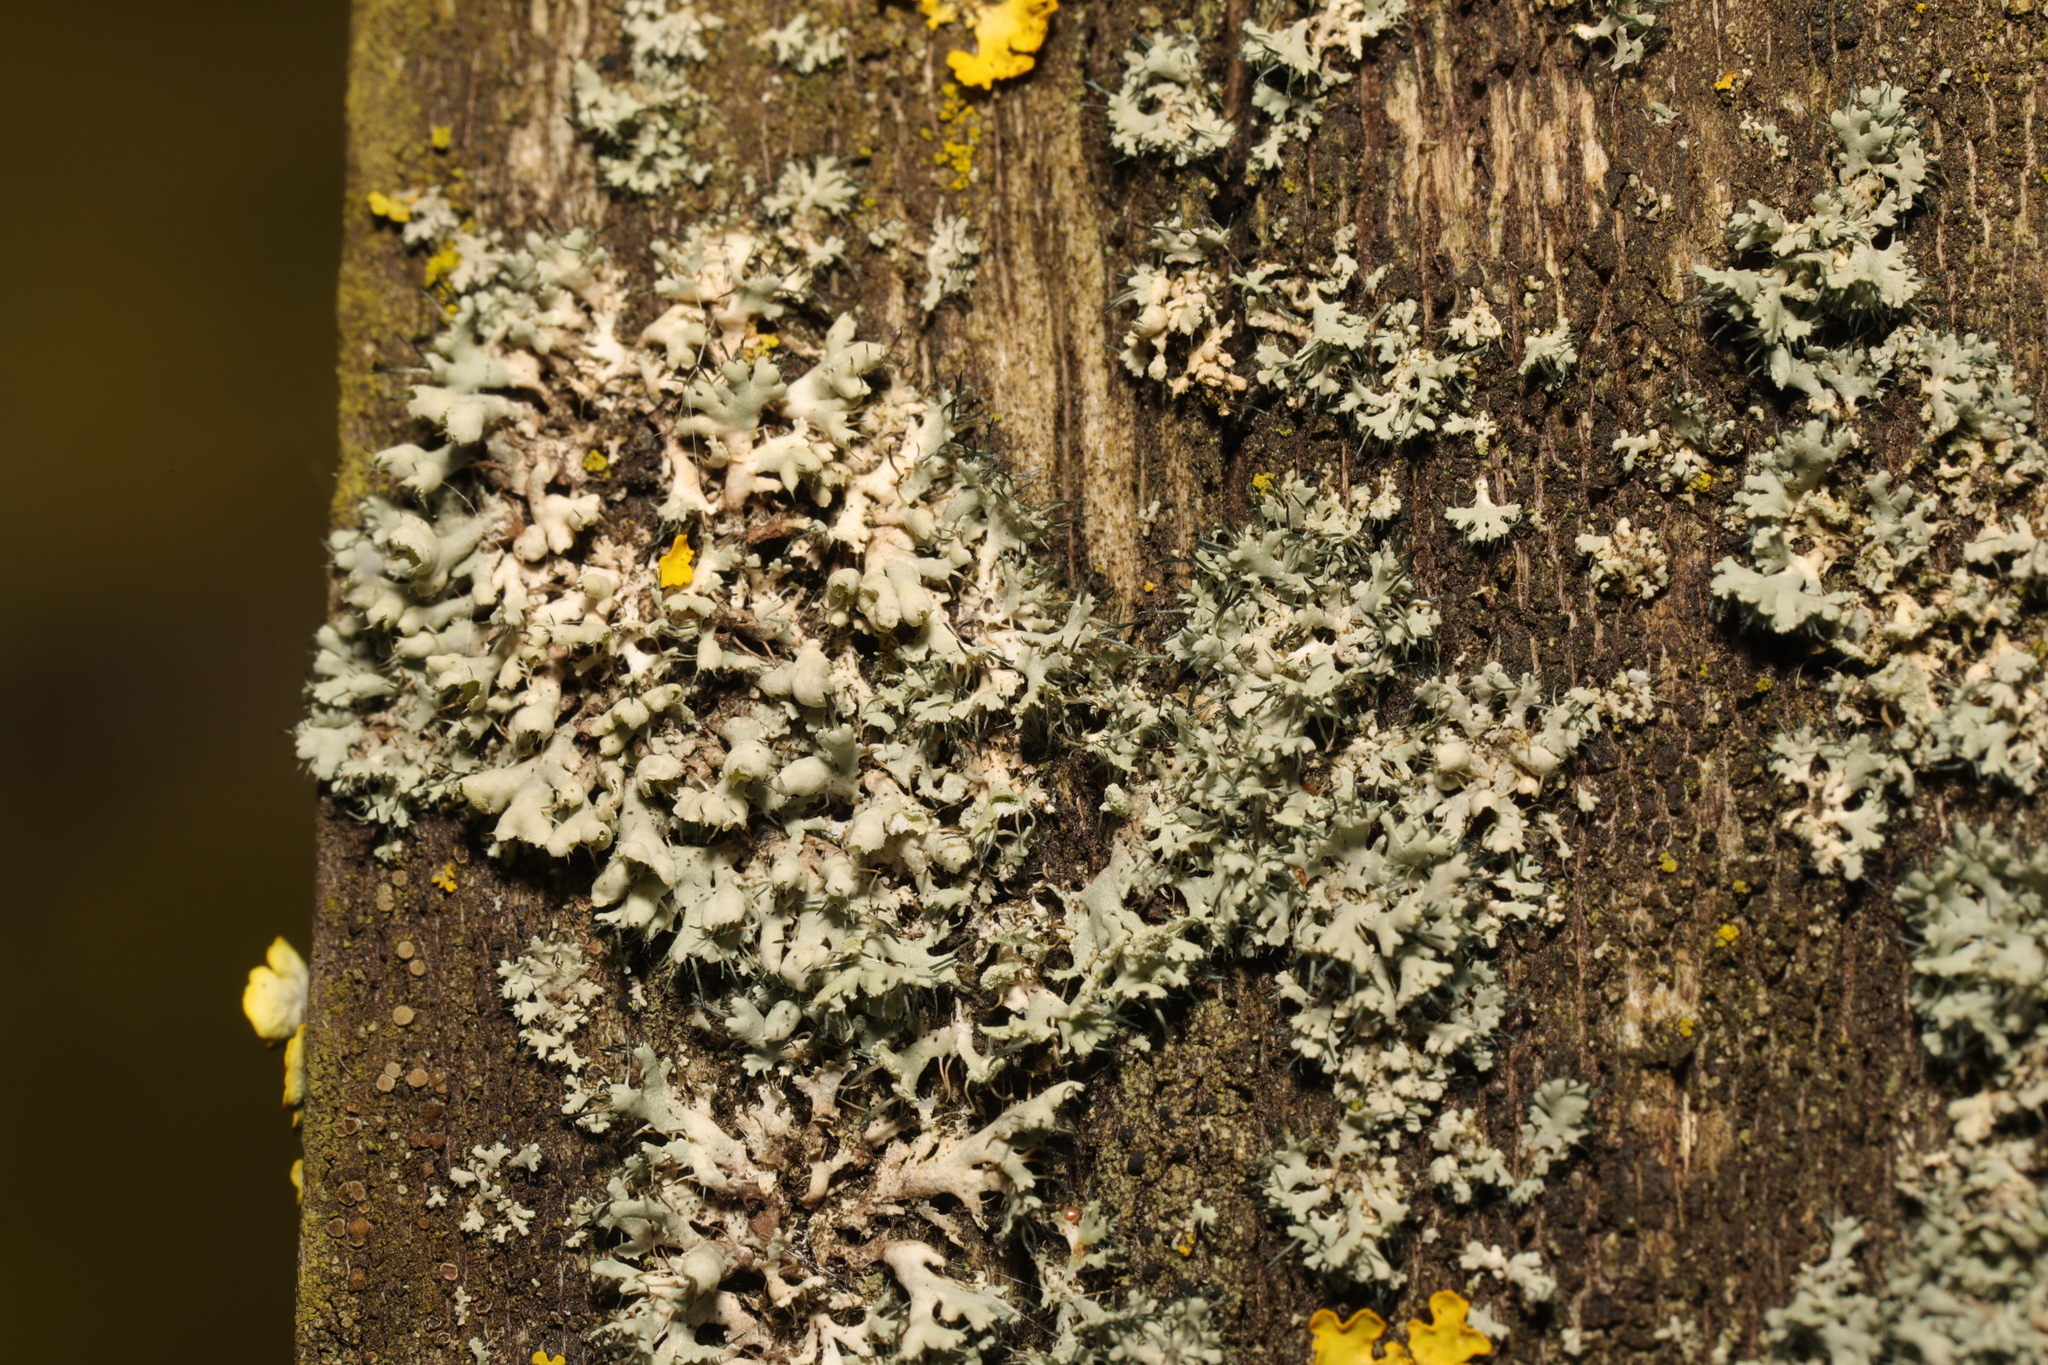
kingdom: Fungi
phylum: Ascomycota
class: Lecanoromycetes
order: Caliciales
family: Physciaceae
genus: Physcia
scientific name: Physcia adscendens
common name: Hooded rosette lichen
